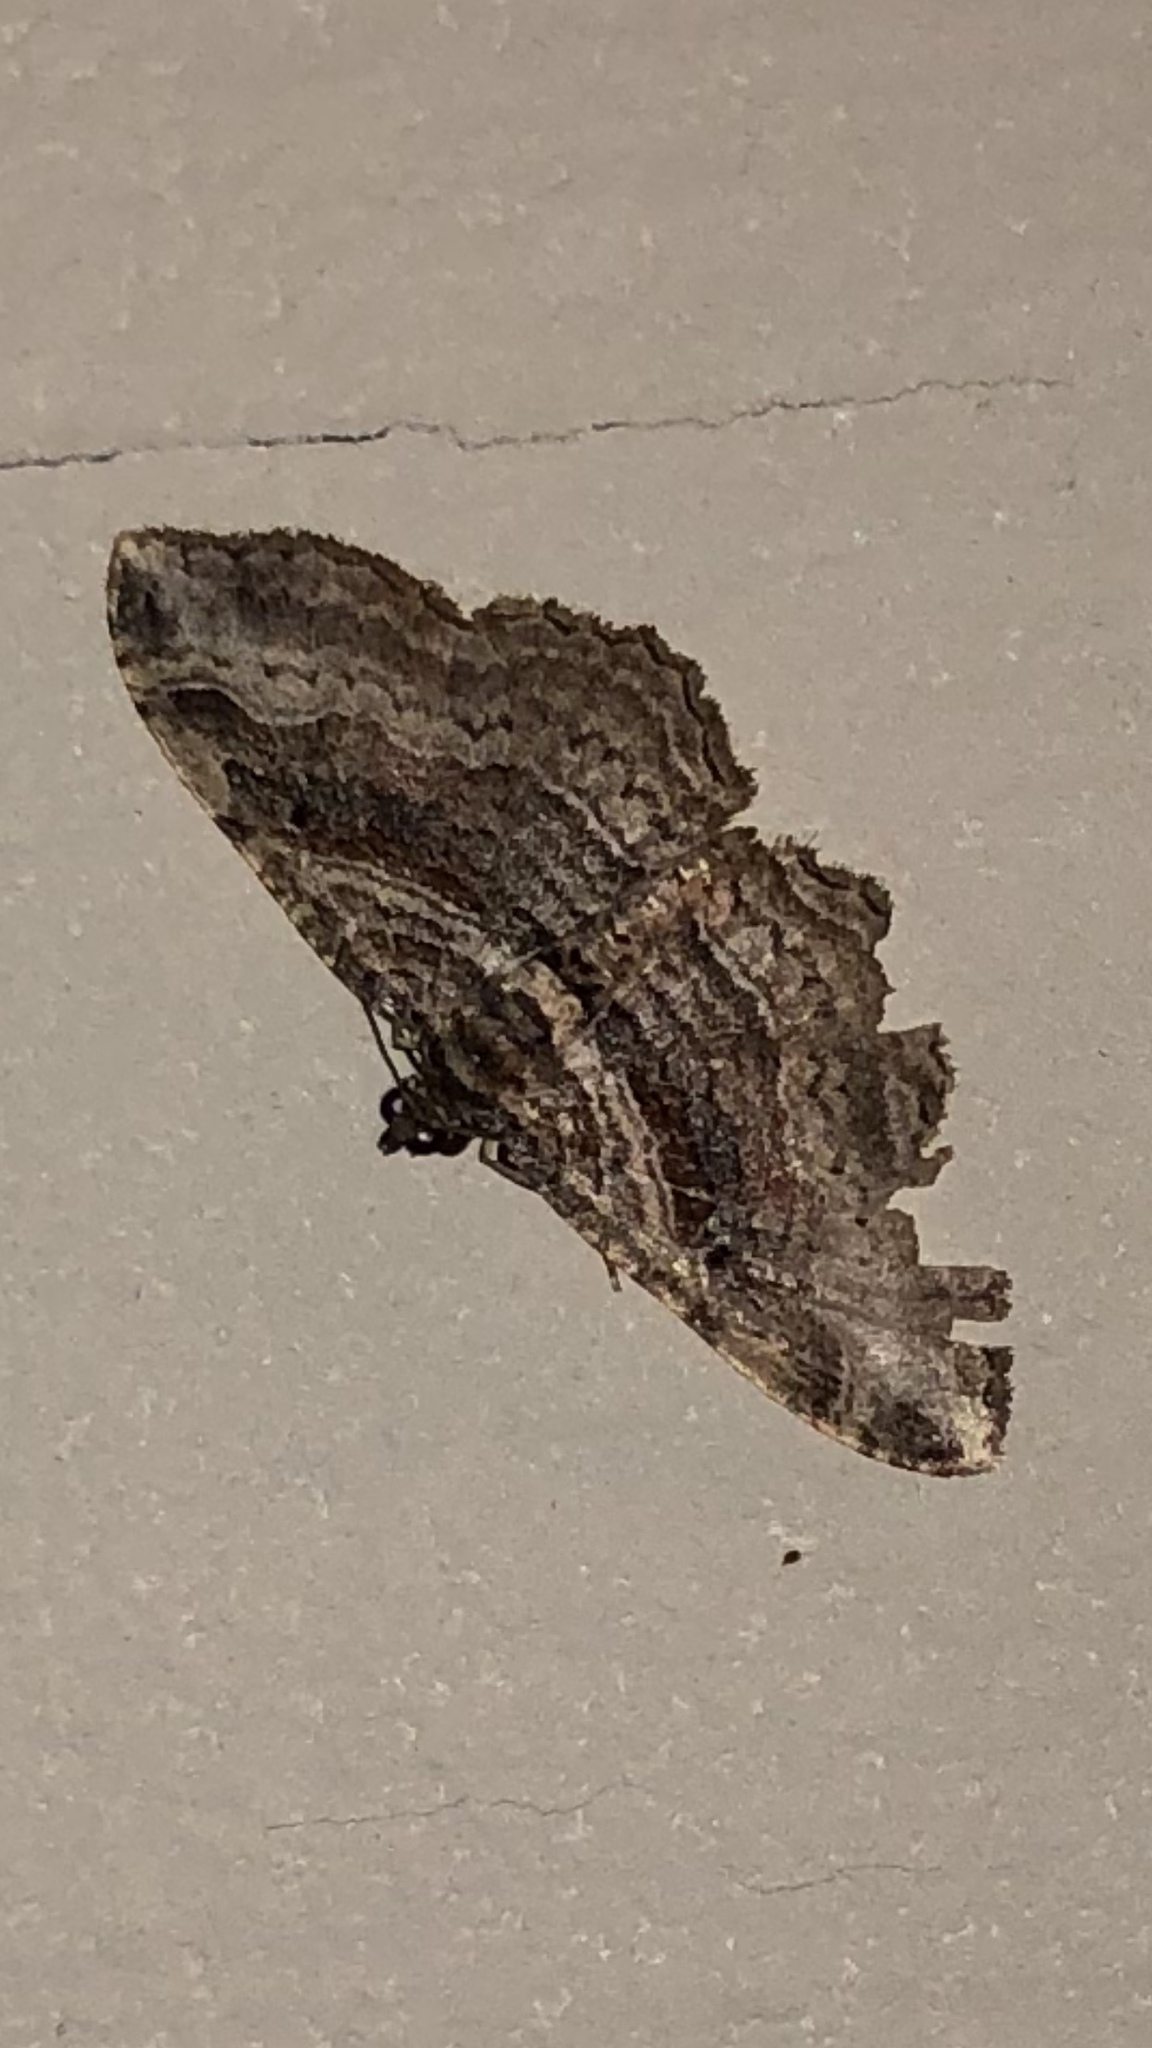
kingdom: Animalia
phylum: Arthropoda
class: Insecta
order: Lepidoptera
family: Geometridae
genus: Costaconvexa
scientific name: Costaconvexa centrostrigaria
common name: Bent-line carpet
